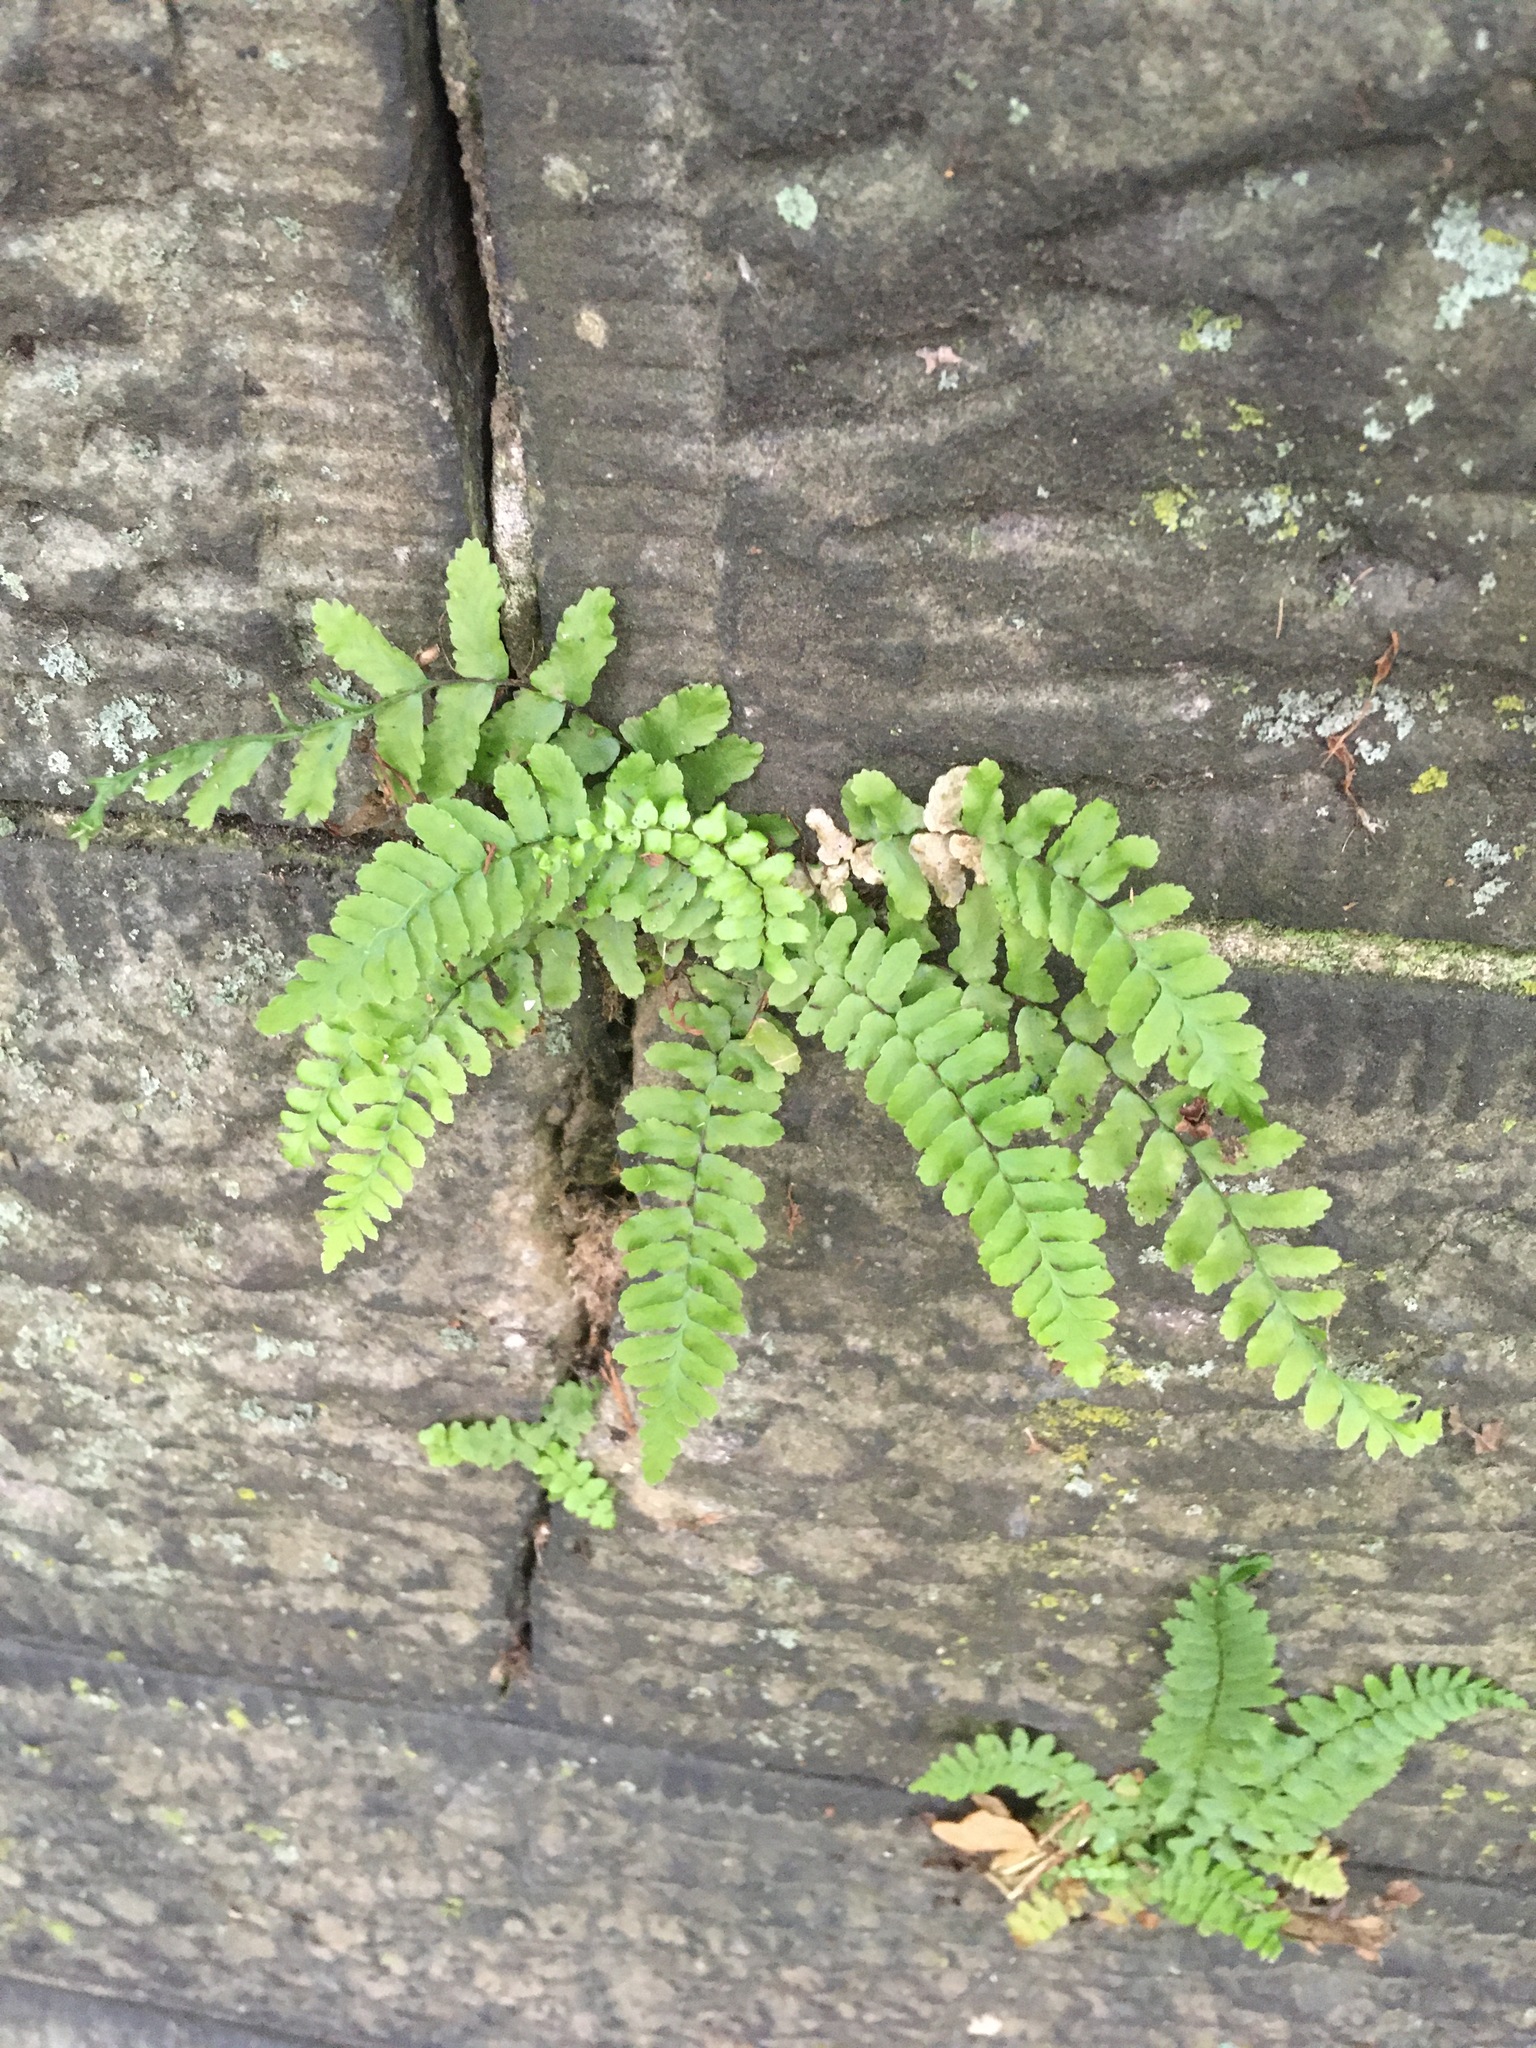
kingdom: Plantae
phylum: Tracheophyta
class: Polypodiopsida
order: Polypodiales
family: Aspleniaceae
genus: Asplenium
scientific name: Asplenium platyneuron
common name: Ebony spleenwort
